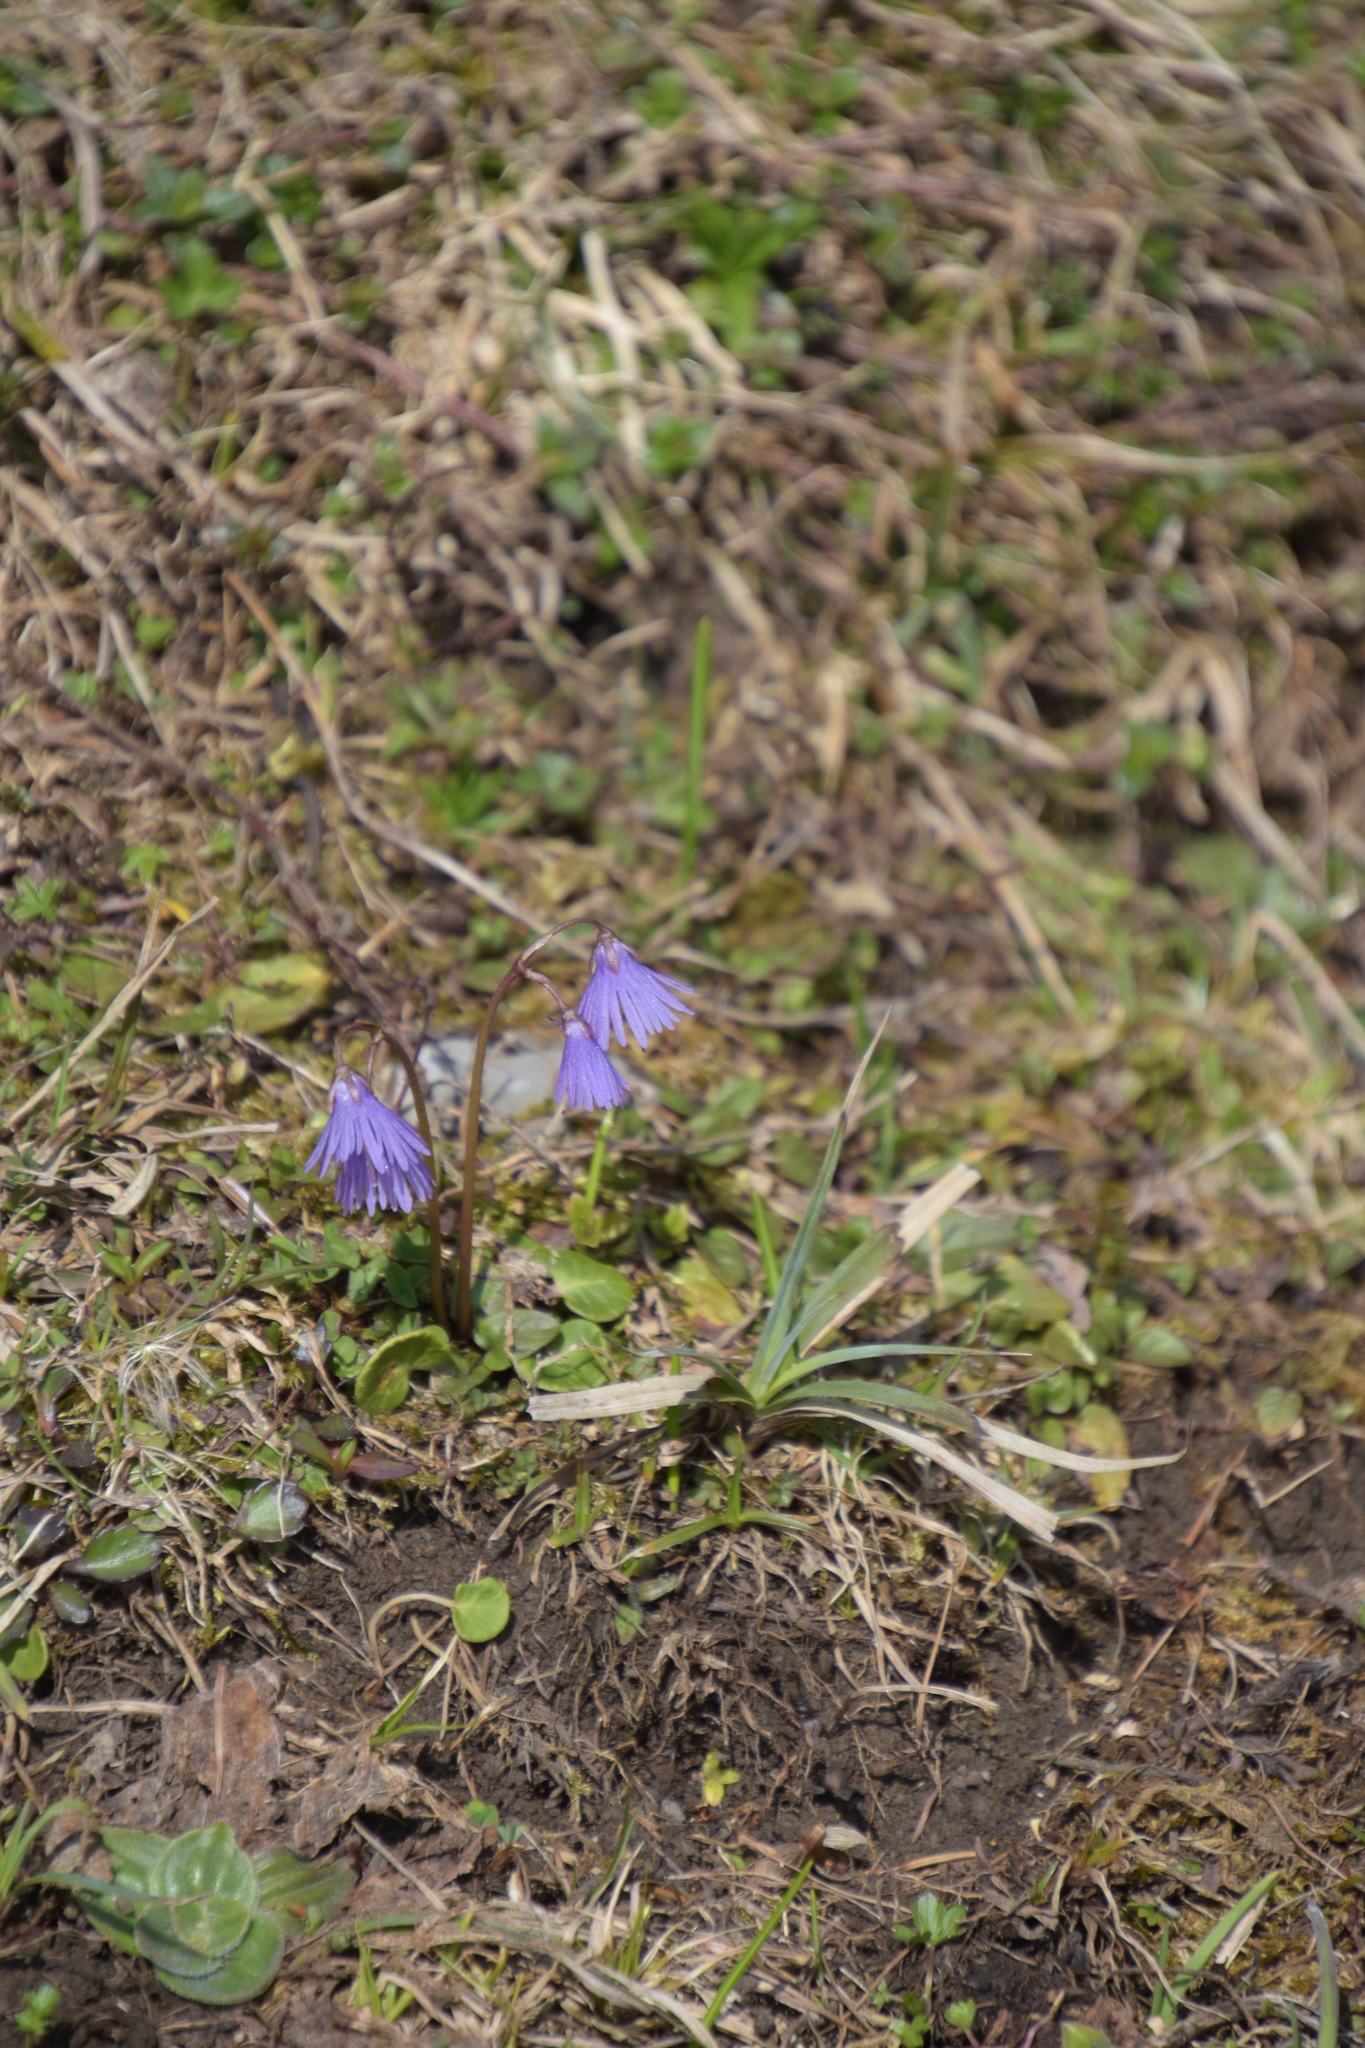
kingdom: Plantae
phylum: Tracheophyta
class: Magnoliopsida
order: Ericales
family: Primulaceae
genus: Soldanella
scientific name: Soldanella alpina
